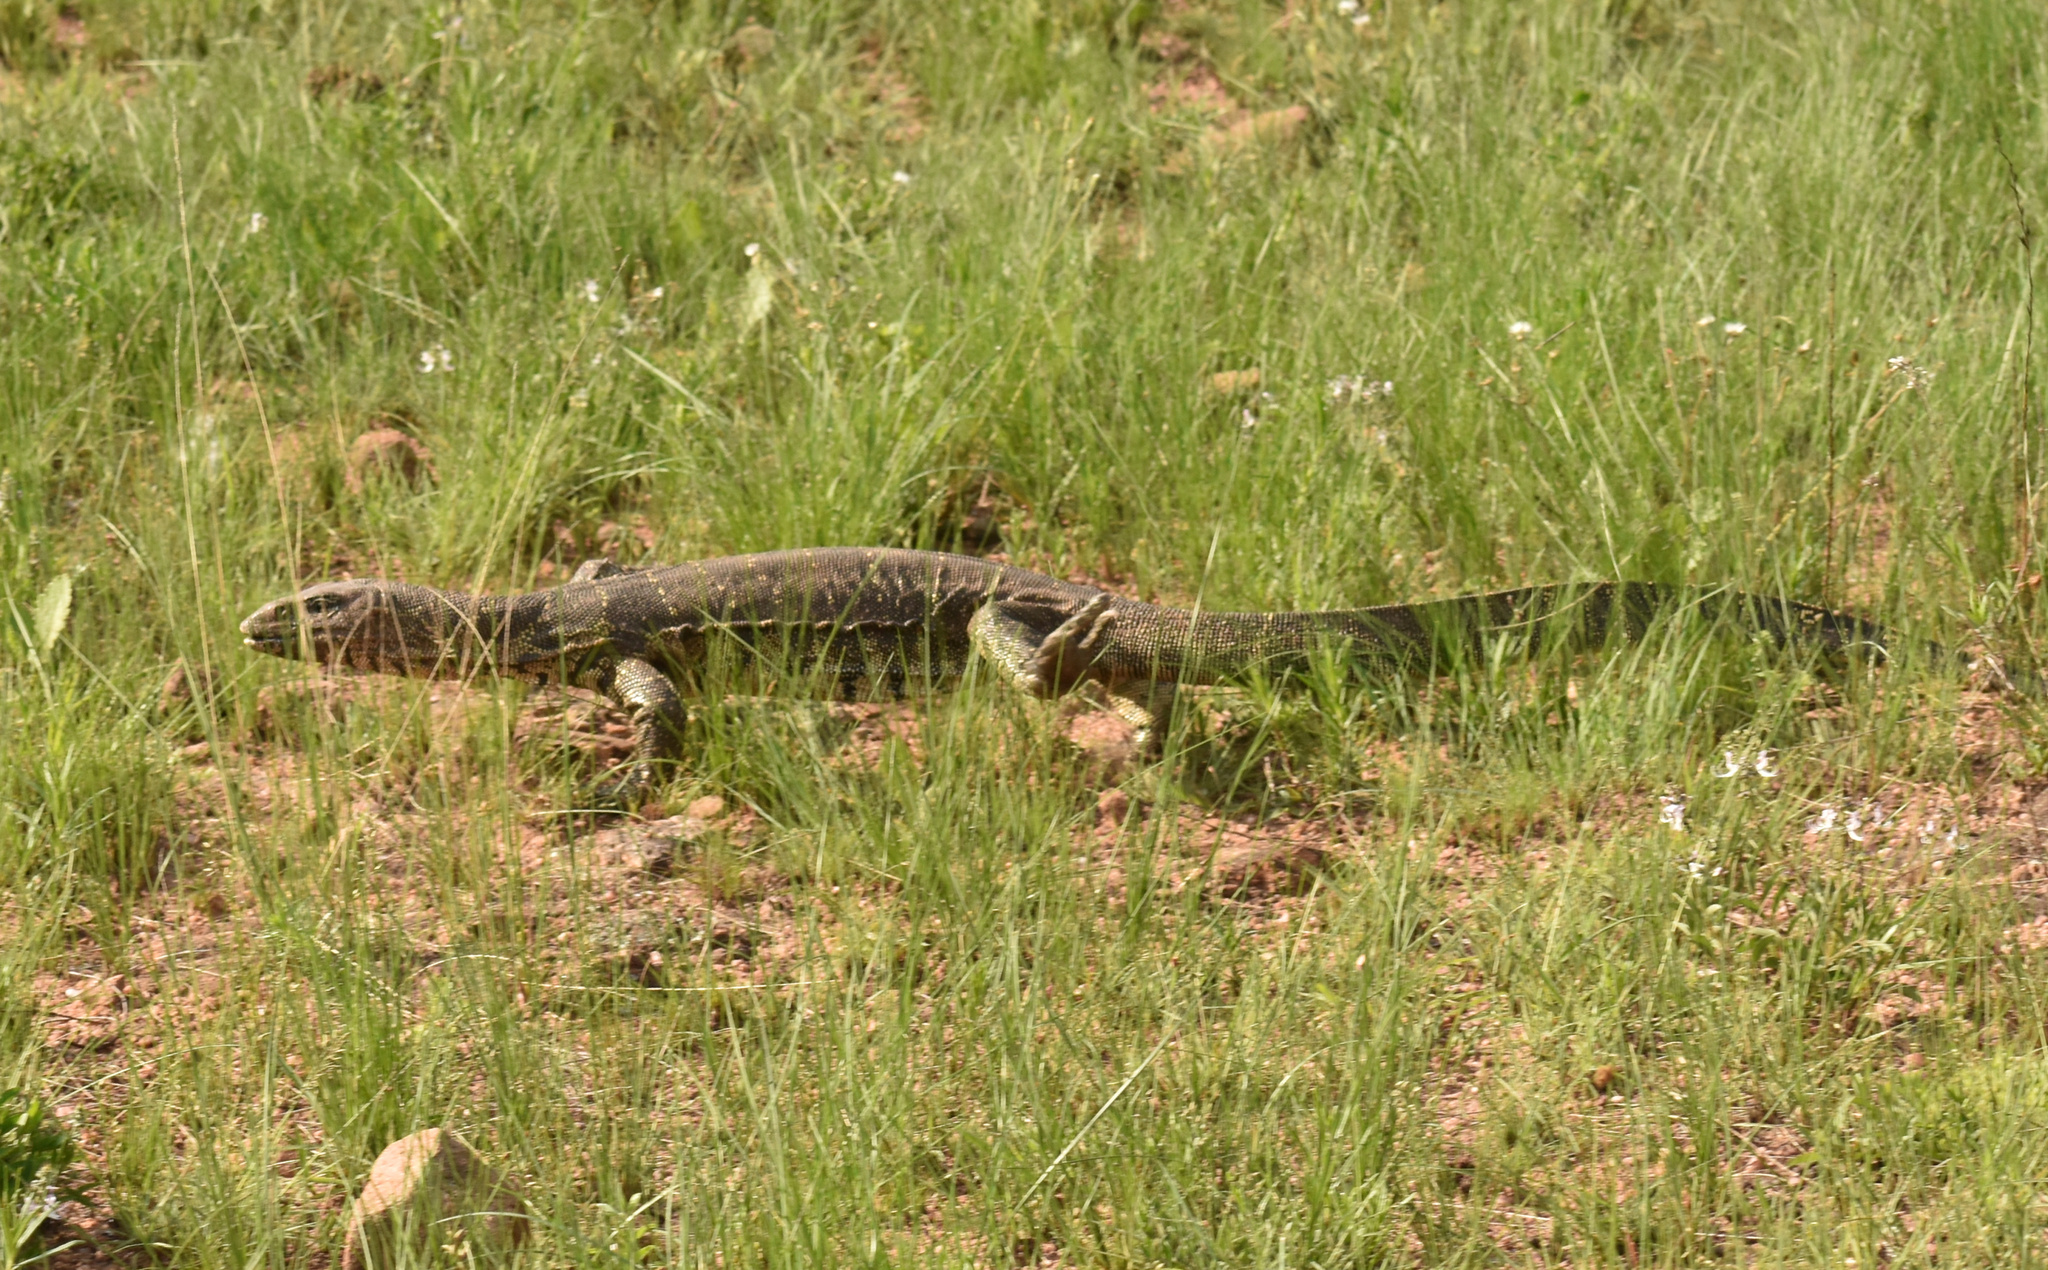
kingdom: Animalia
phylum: Chordata
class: Squamata
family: Varanidae
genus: Varanus
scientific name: Varanus niloticus
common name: Nile monitor
